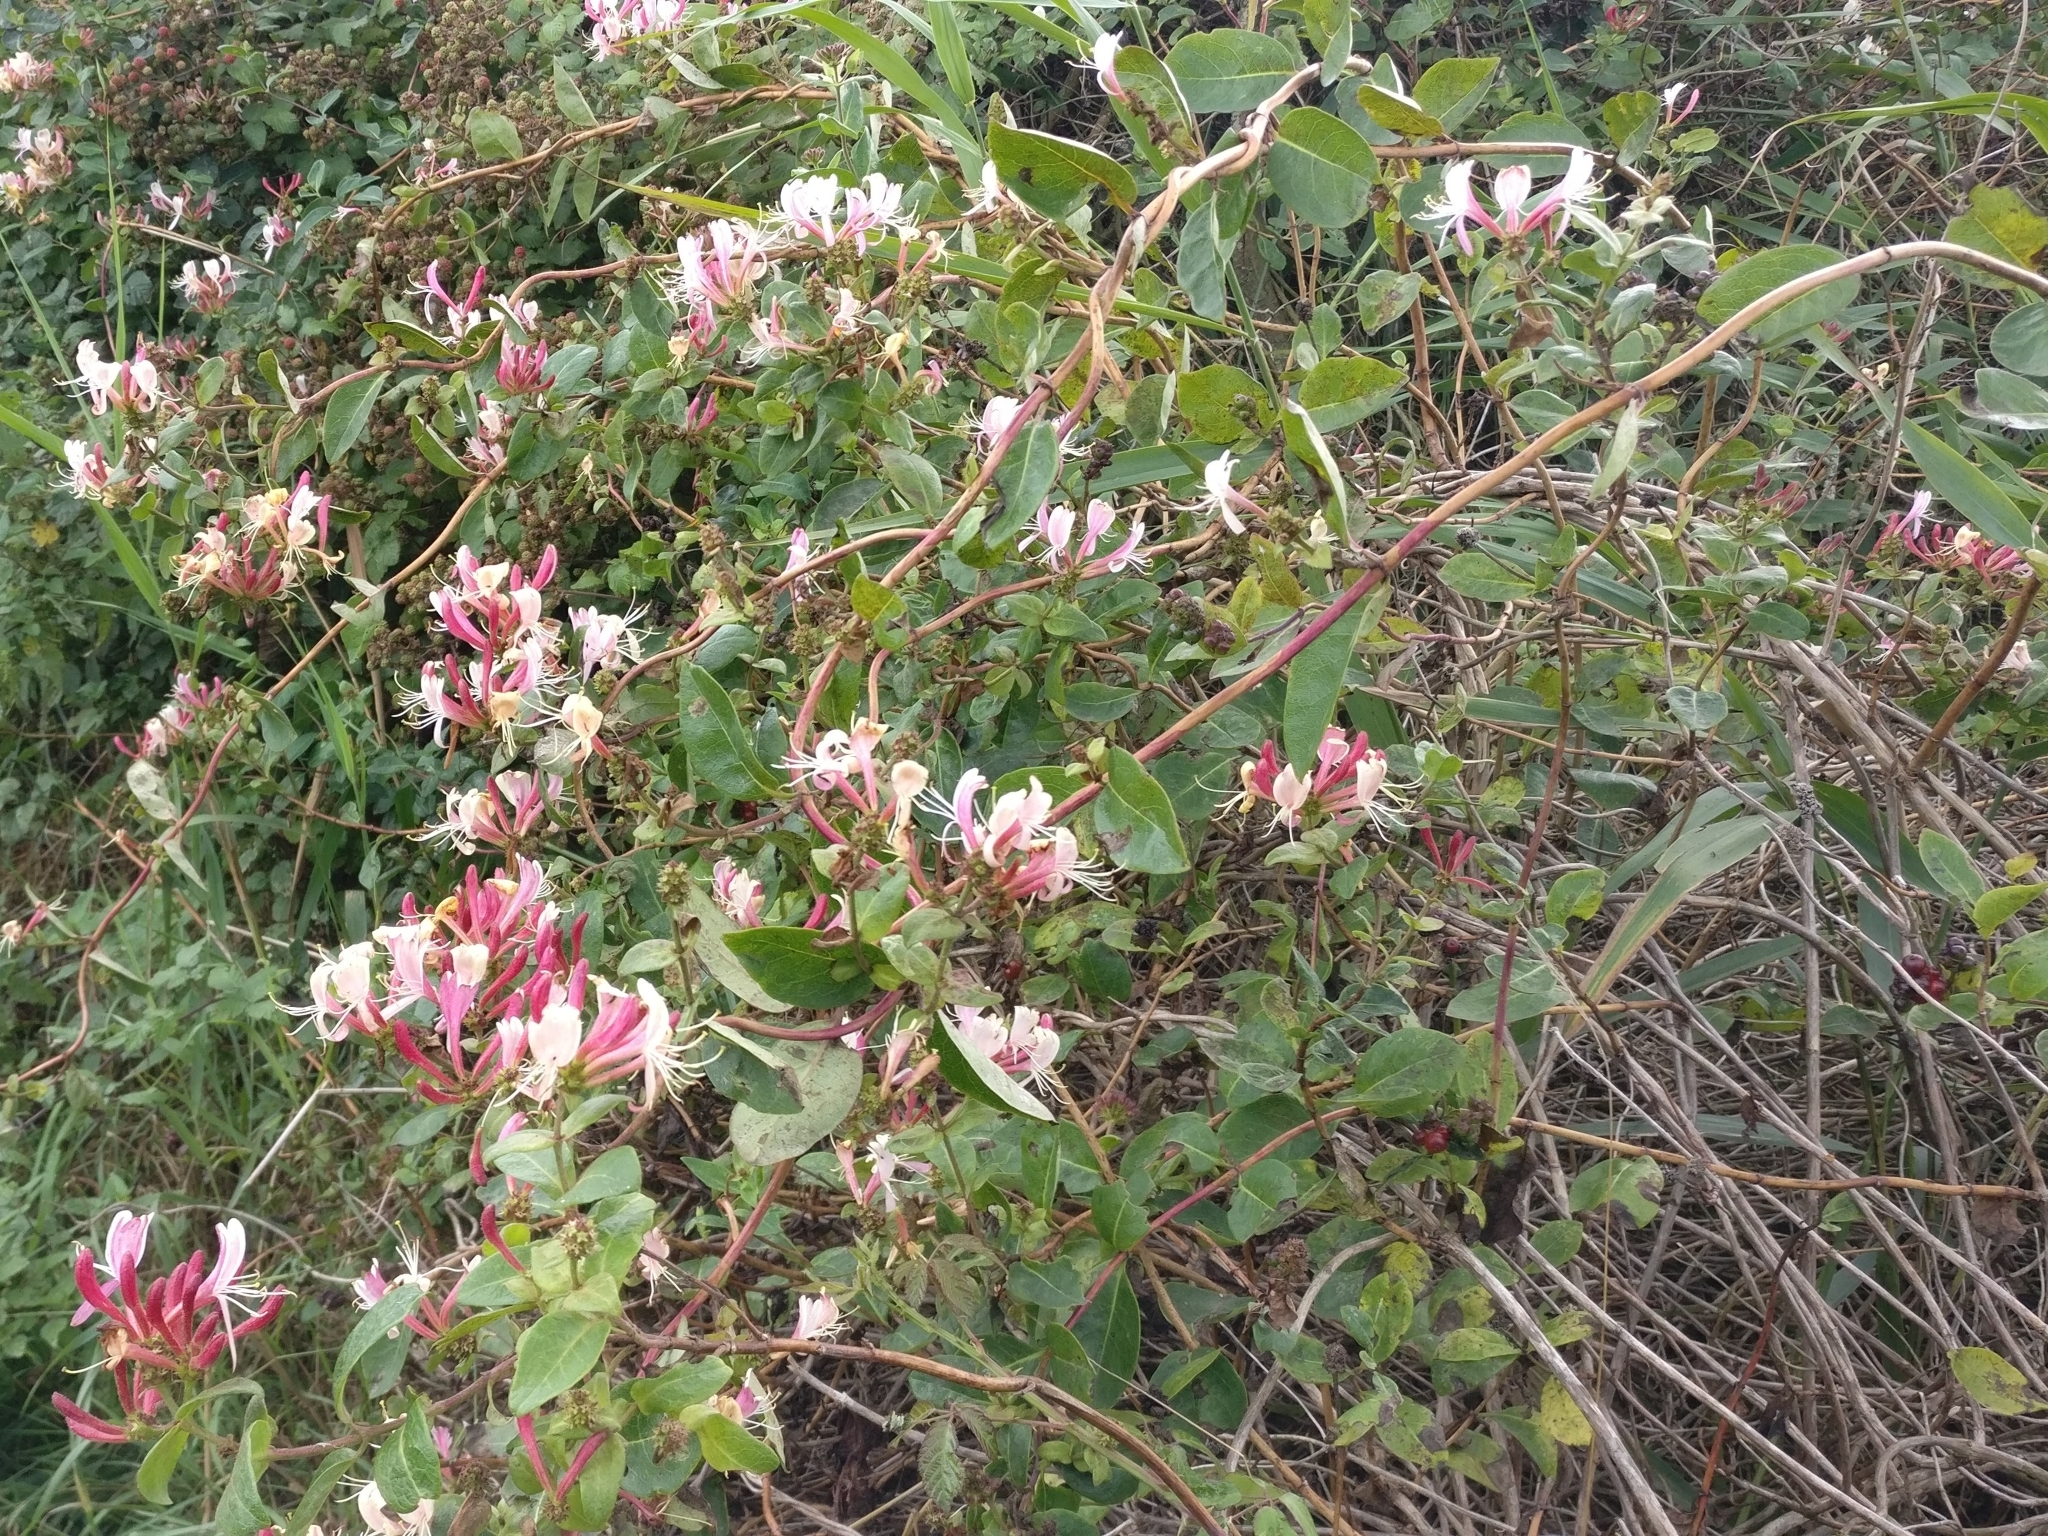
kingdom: Plantae
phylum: Tracheophyta
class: Magnoliopsida
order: Dipsacales
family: Caprifoliaceae
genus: Lonicera
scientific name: Lonicera periclymenum
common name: European honeysuckle
